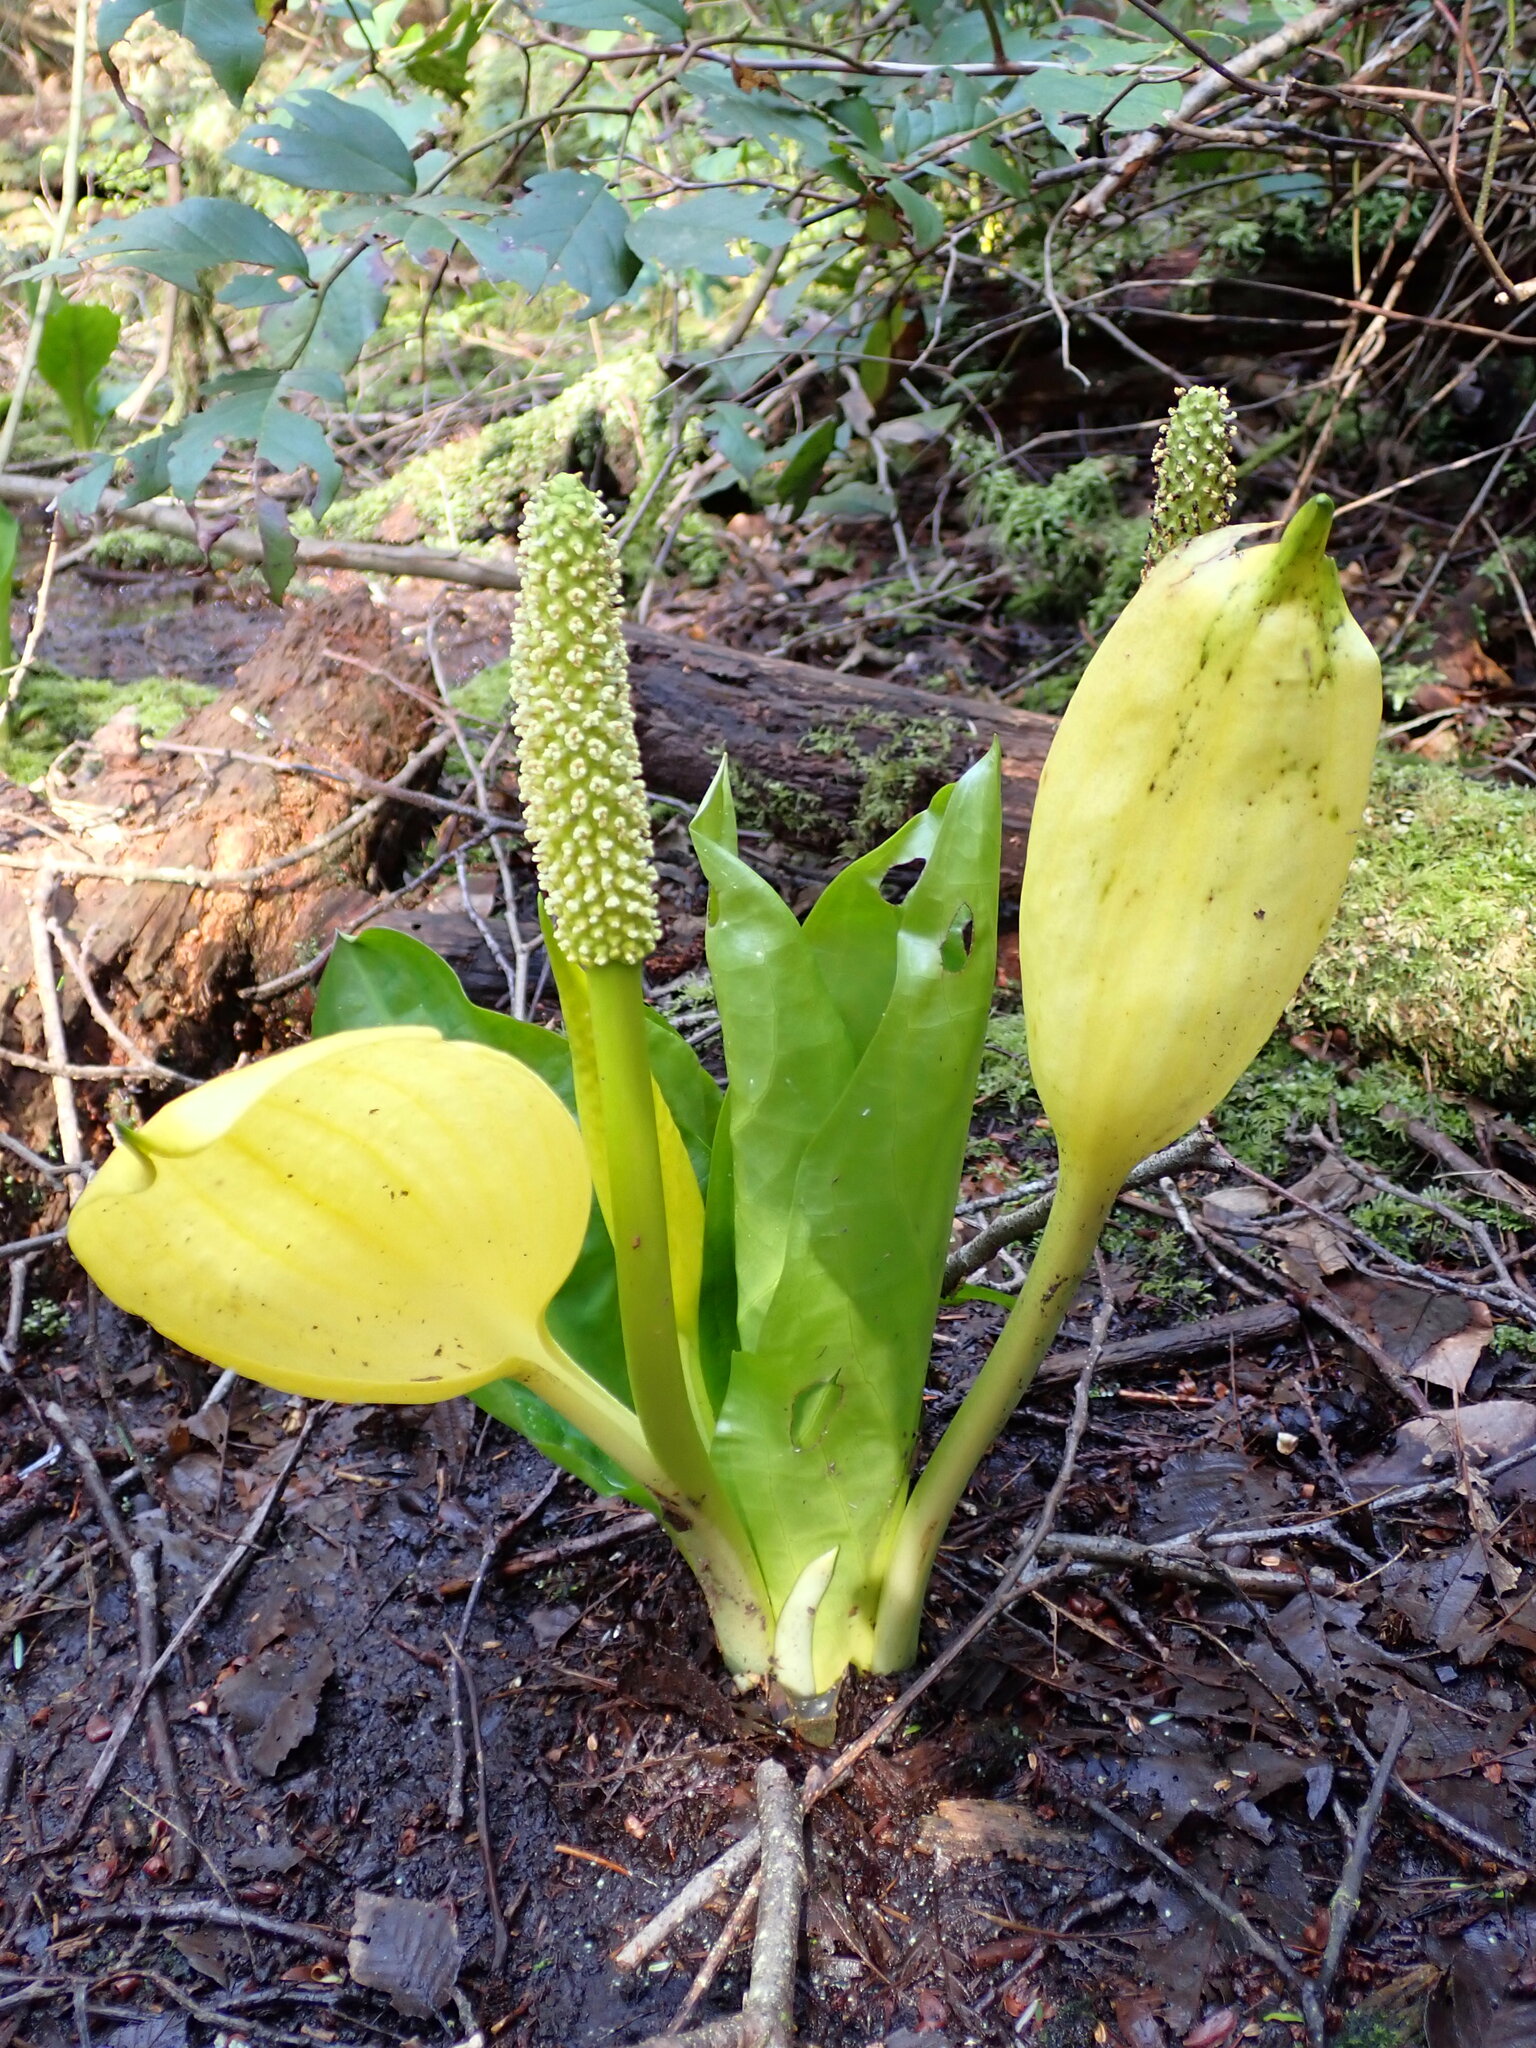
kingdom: Plantae
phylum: Tracheophyta
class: Liliopsida
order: Alismatales
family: Araceae
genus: Lysichiton
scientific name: Lysichiton americanus
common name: American skunk cabbage
